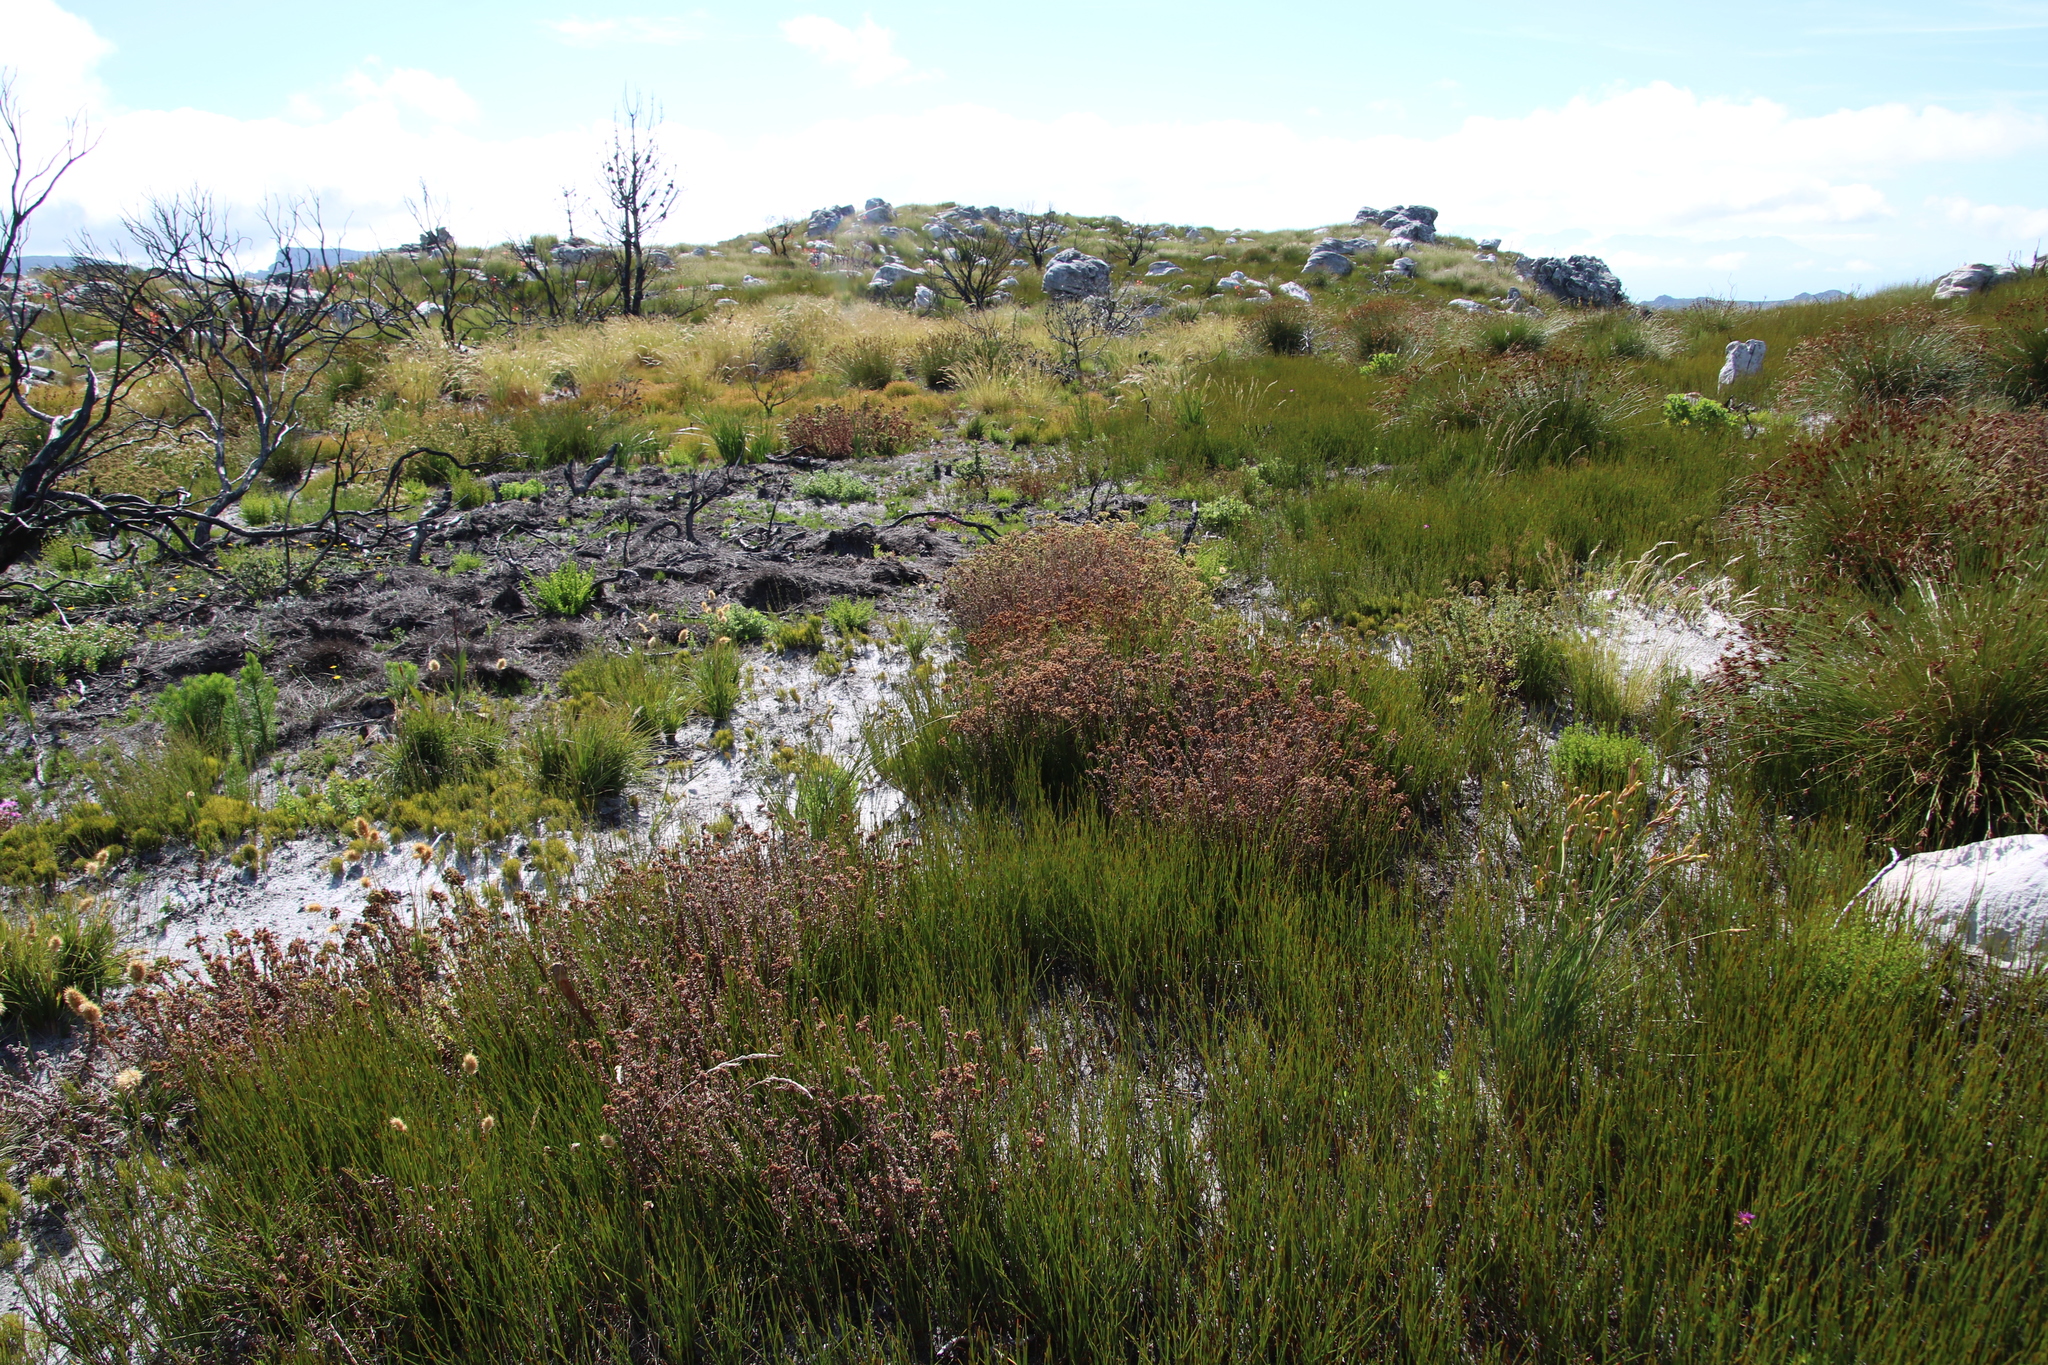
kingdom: Plantae
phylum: Tracheophyta
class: Magnoliopsida
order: Lamiales
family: Scrophulariaceae
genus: Pseudoselago
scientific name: Pseudoselago peninsulae
